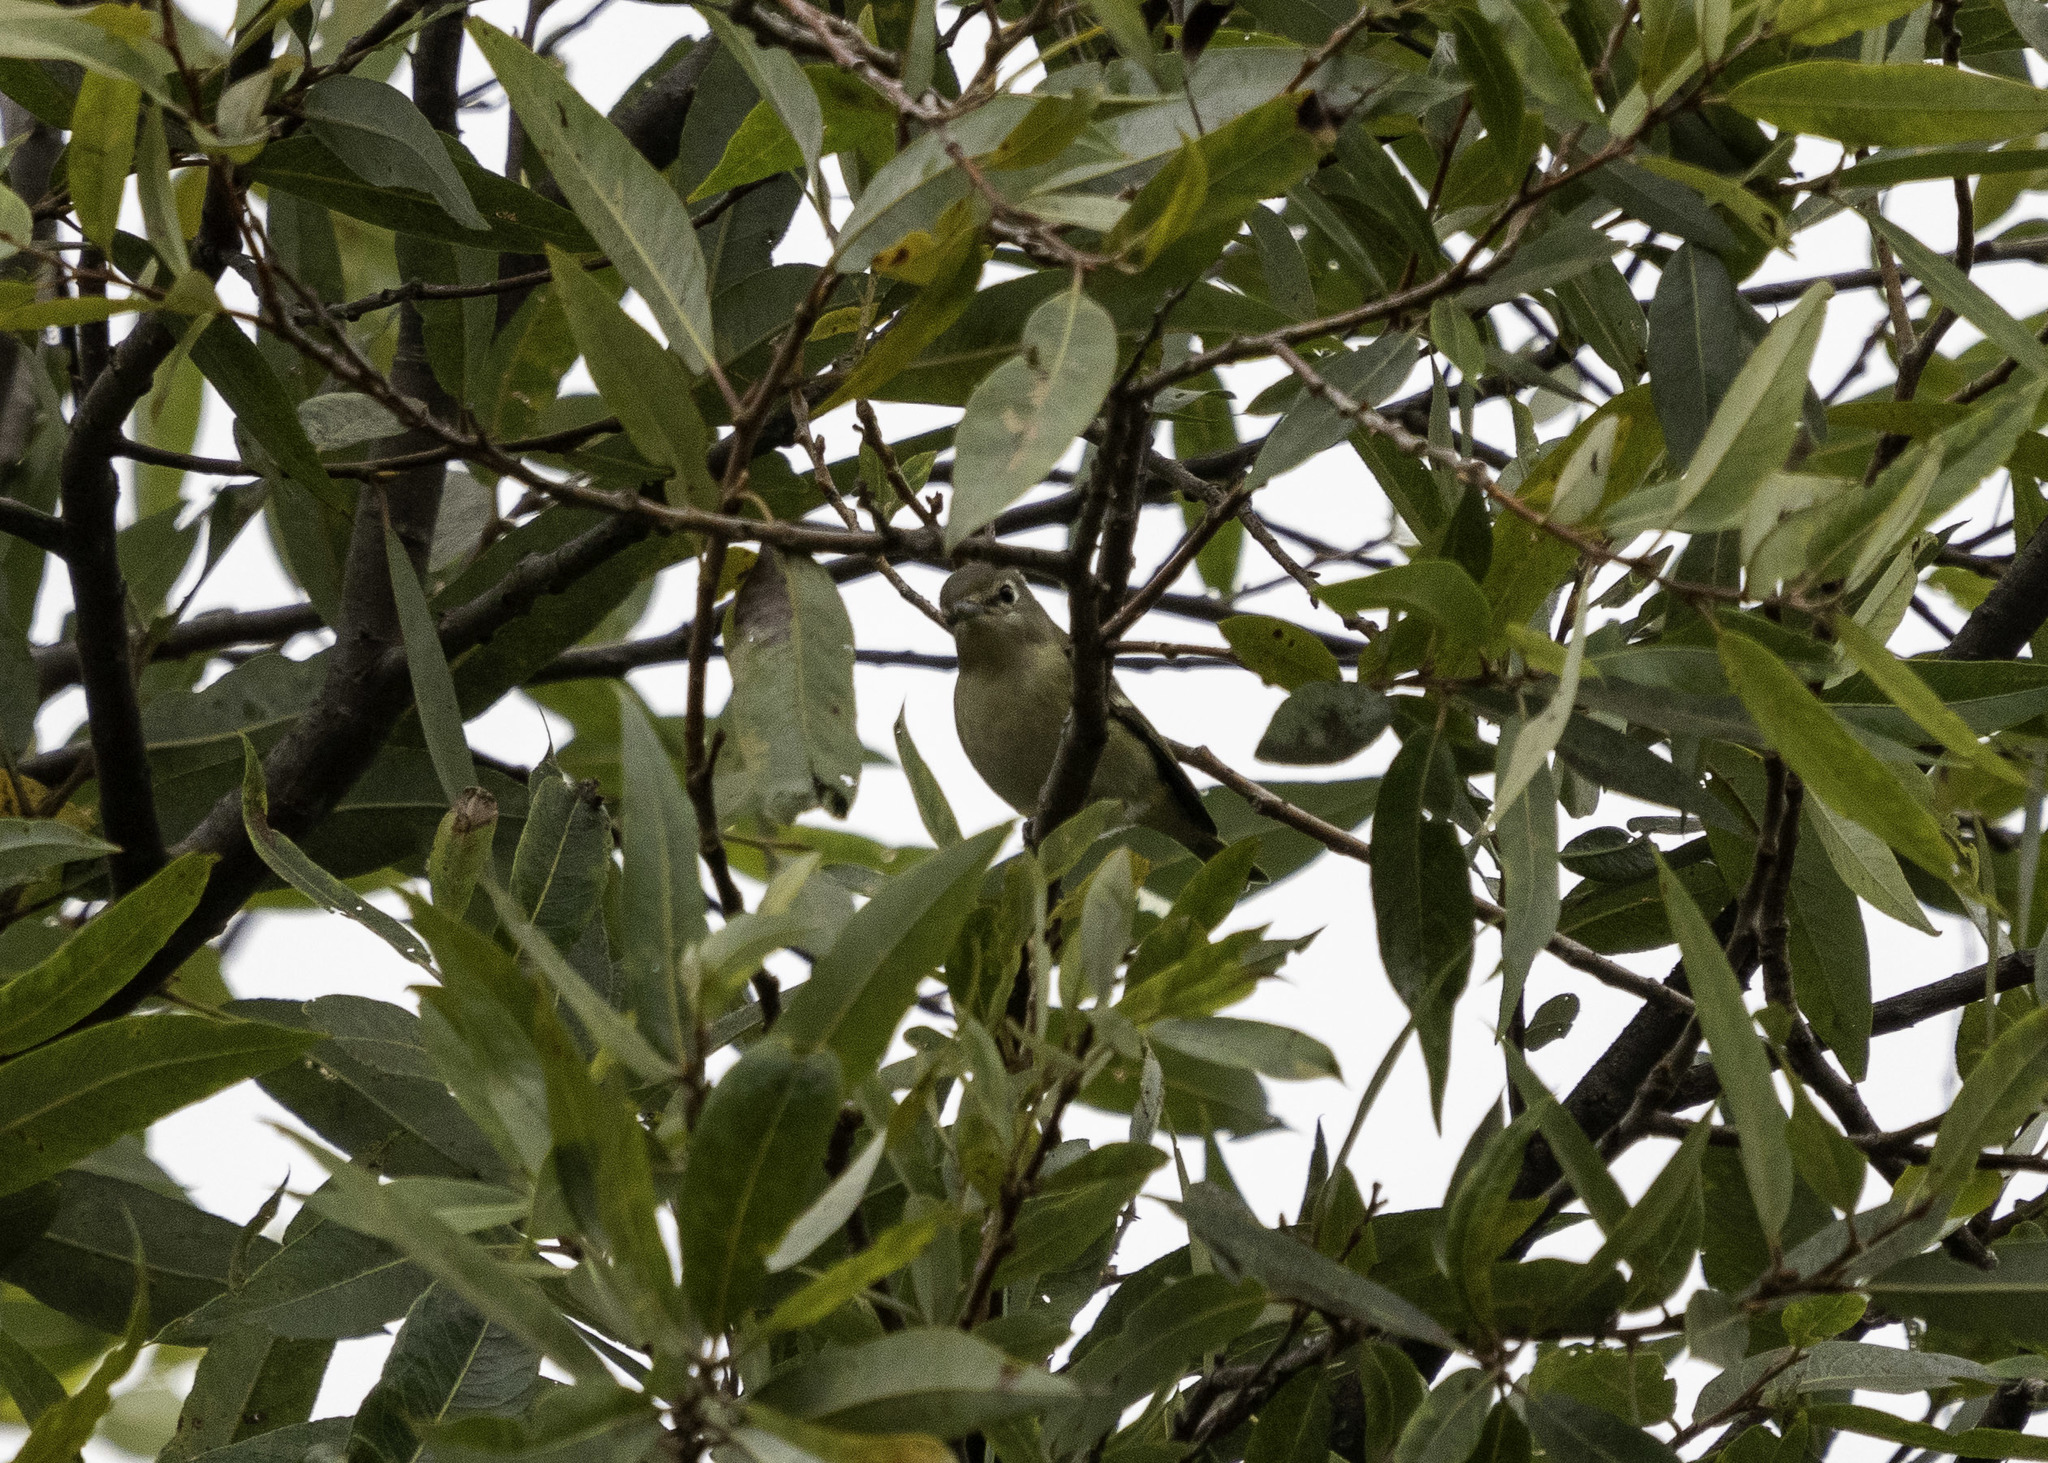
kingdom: Animalia
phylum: Chordata
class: Aves
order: Passeriformes
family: Vireonidae
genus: Vireo
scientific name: Vireo cassinii
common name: Cassin's vireo
